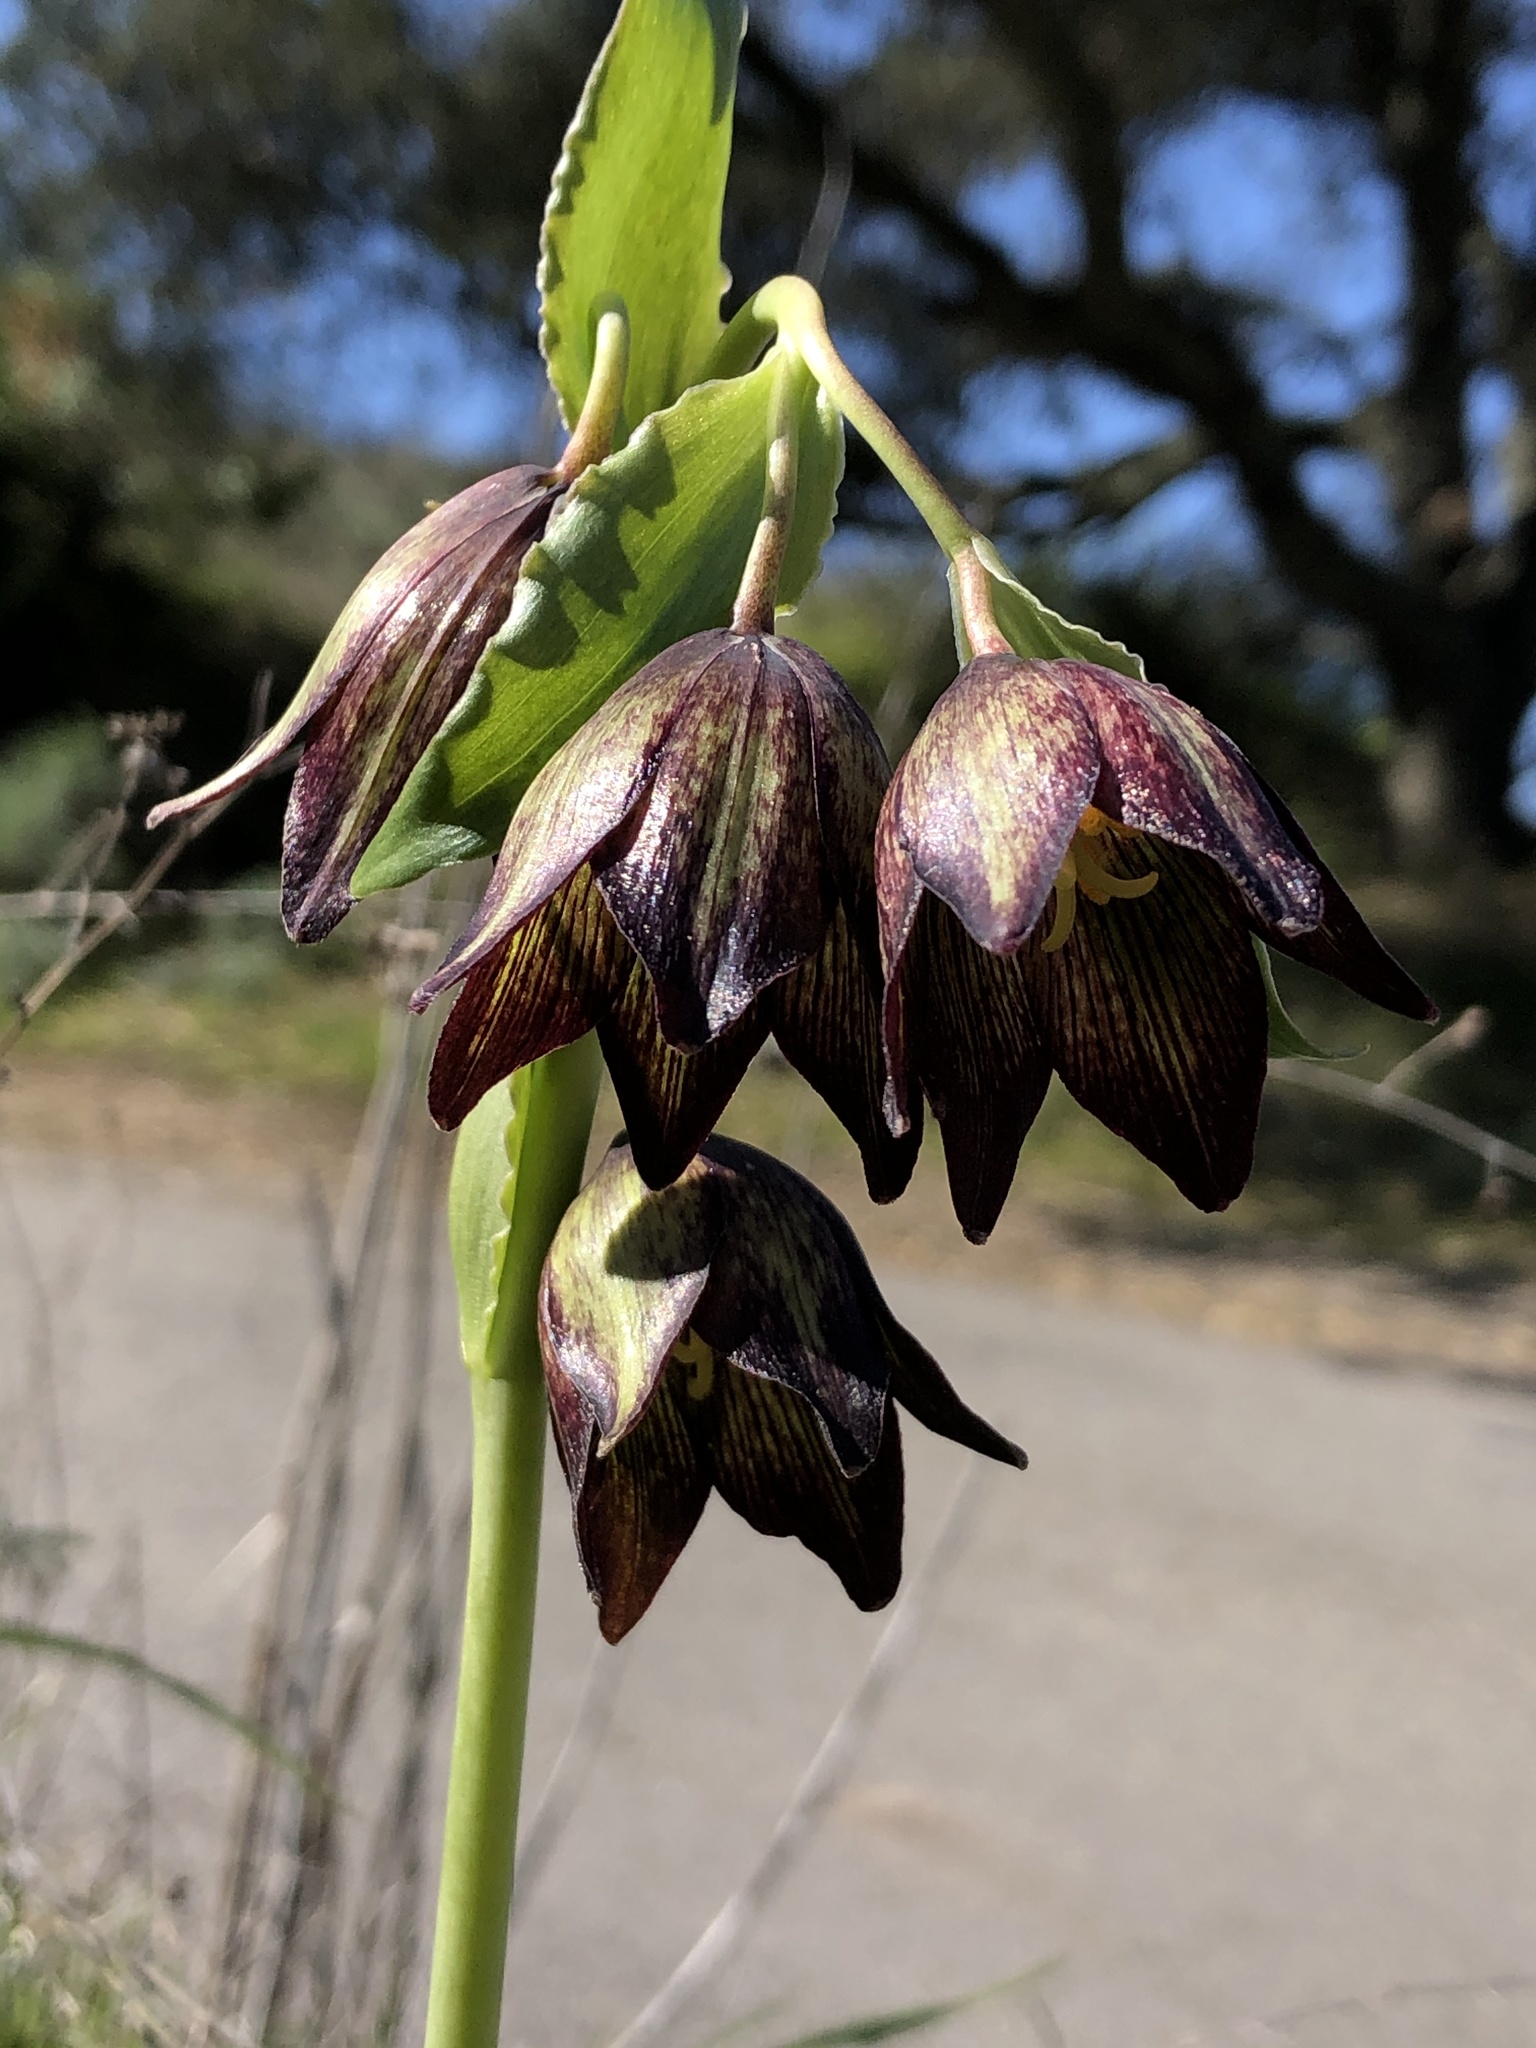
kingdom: Plantae
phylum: Tracheophyta
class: Liliopsida
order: Liliales
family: Liliaceae
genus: Fritillaria
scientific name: Fritillaria biflora
